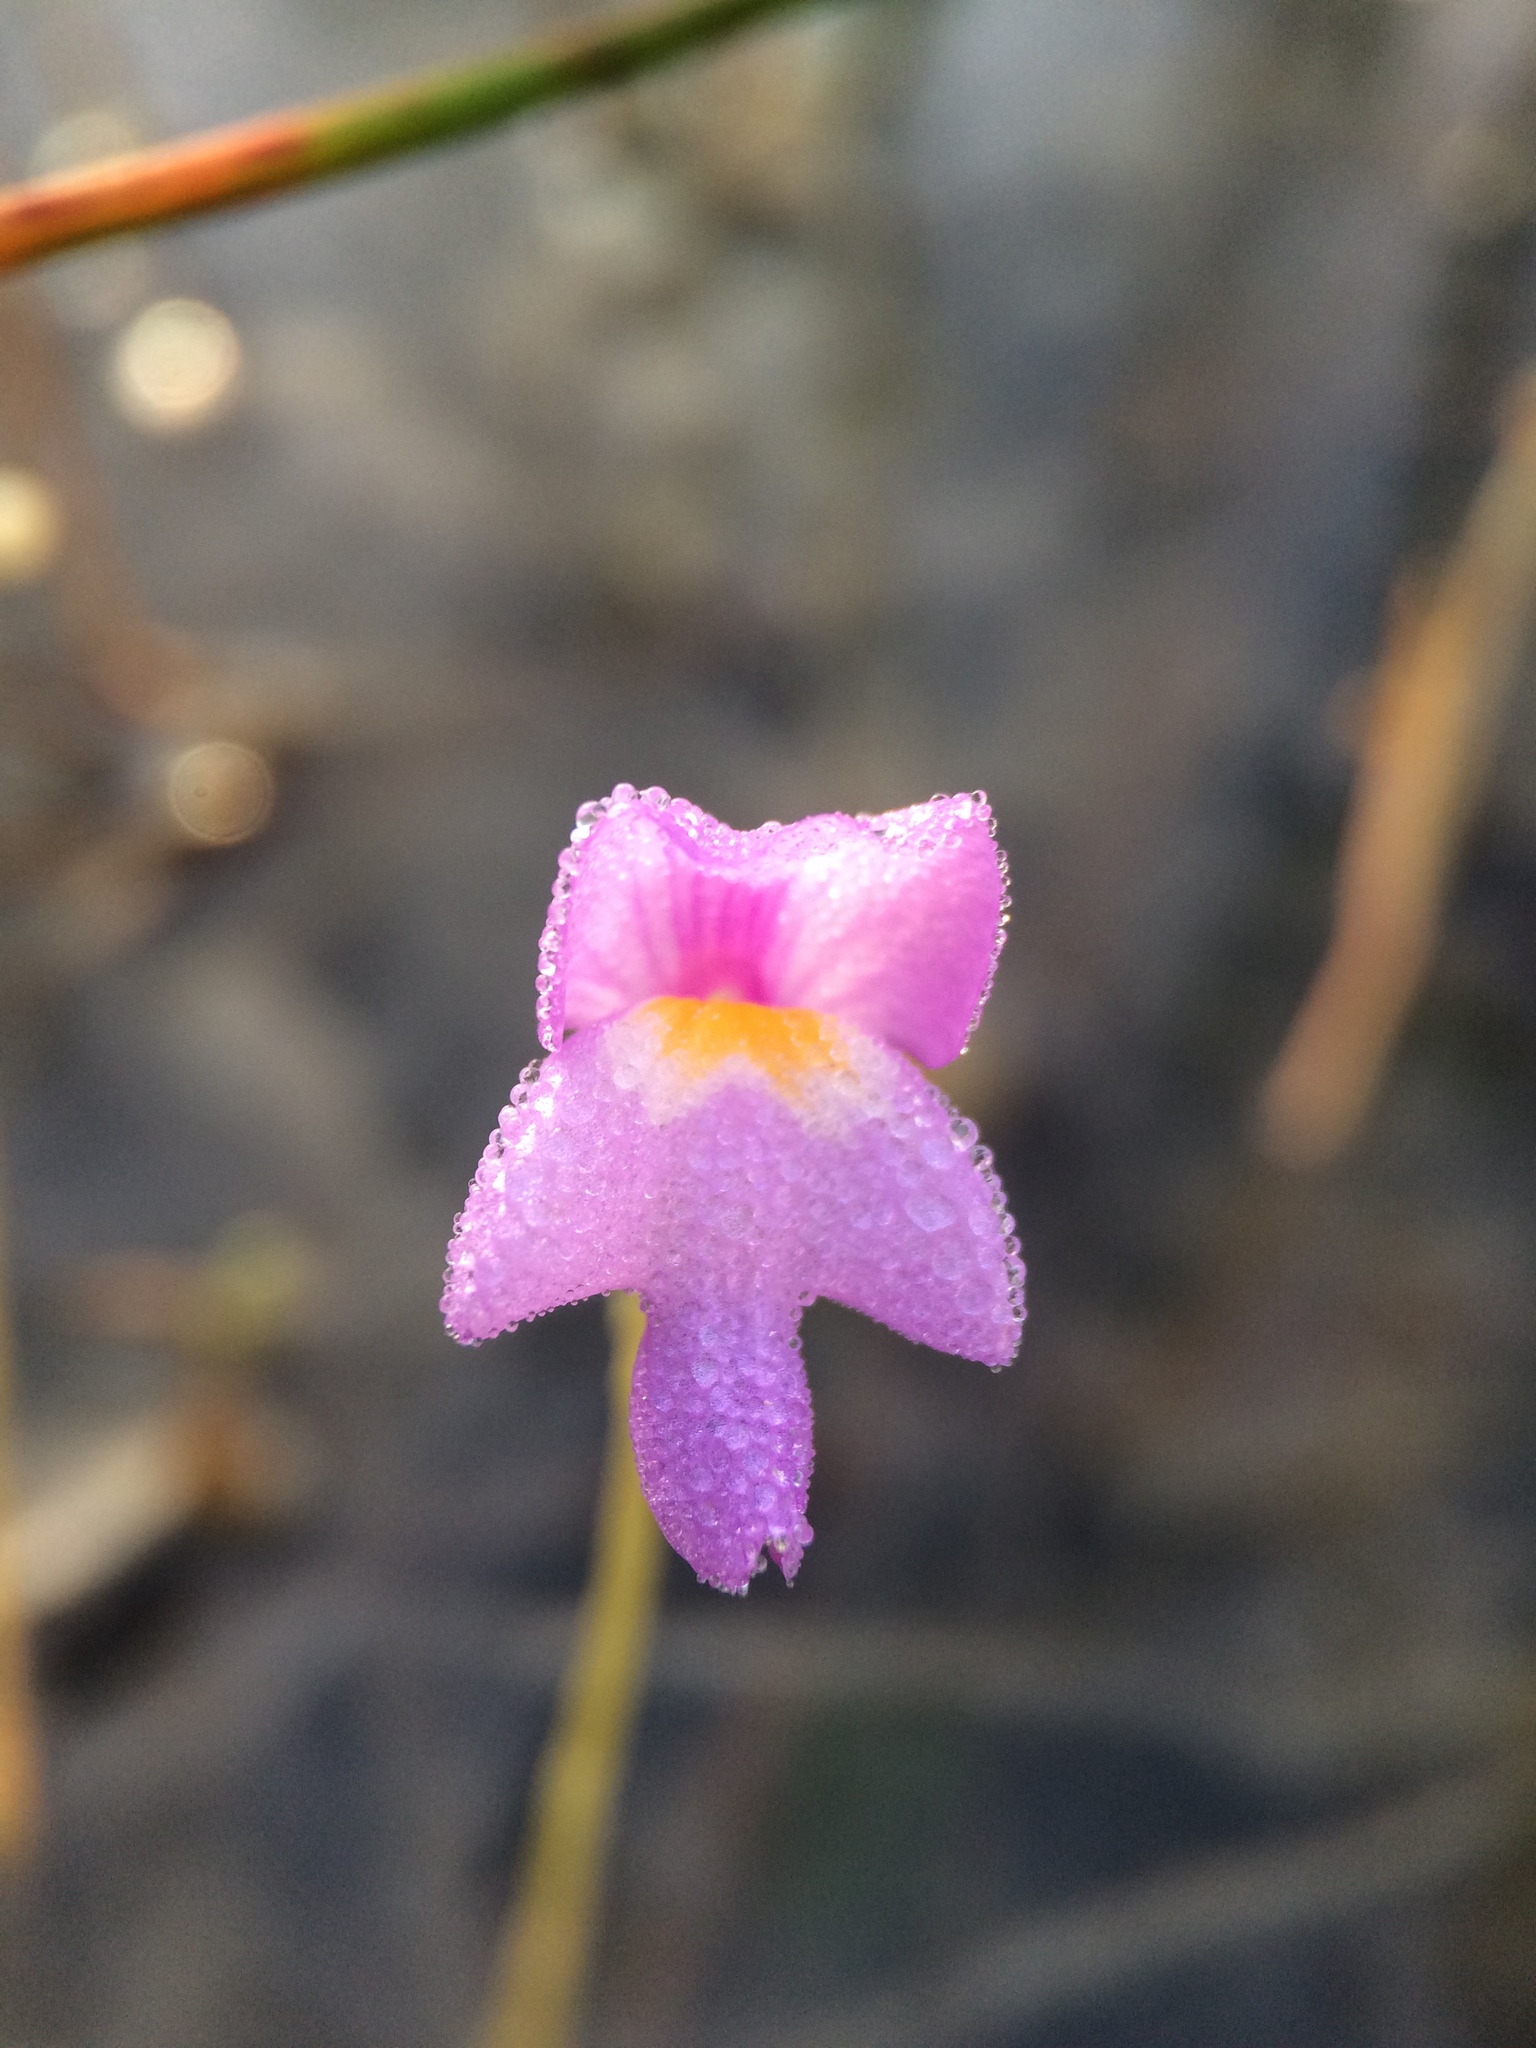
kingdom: Plantae
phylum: Tracheophyta
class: Magnoliopsida
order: Lamiales
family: Lentibulariaceae
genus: Utricularia
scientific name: Utricularia purpurea
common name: Eastern purple bladderwort
